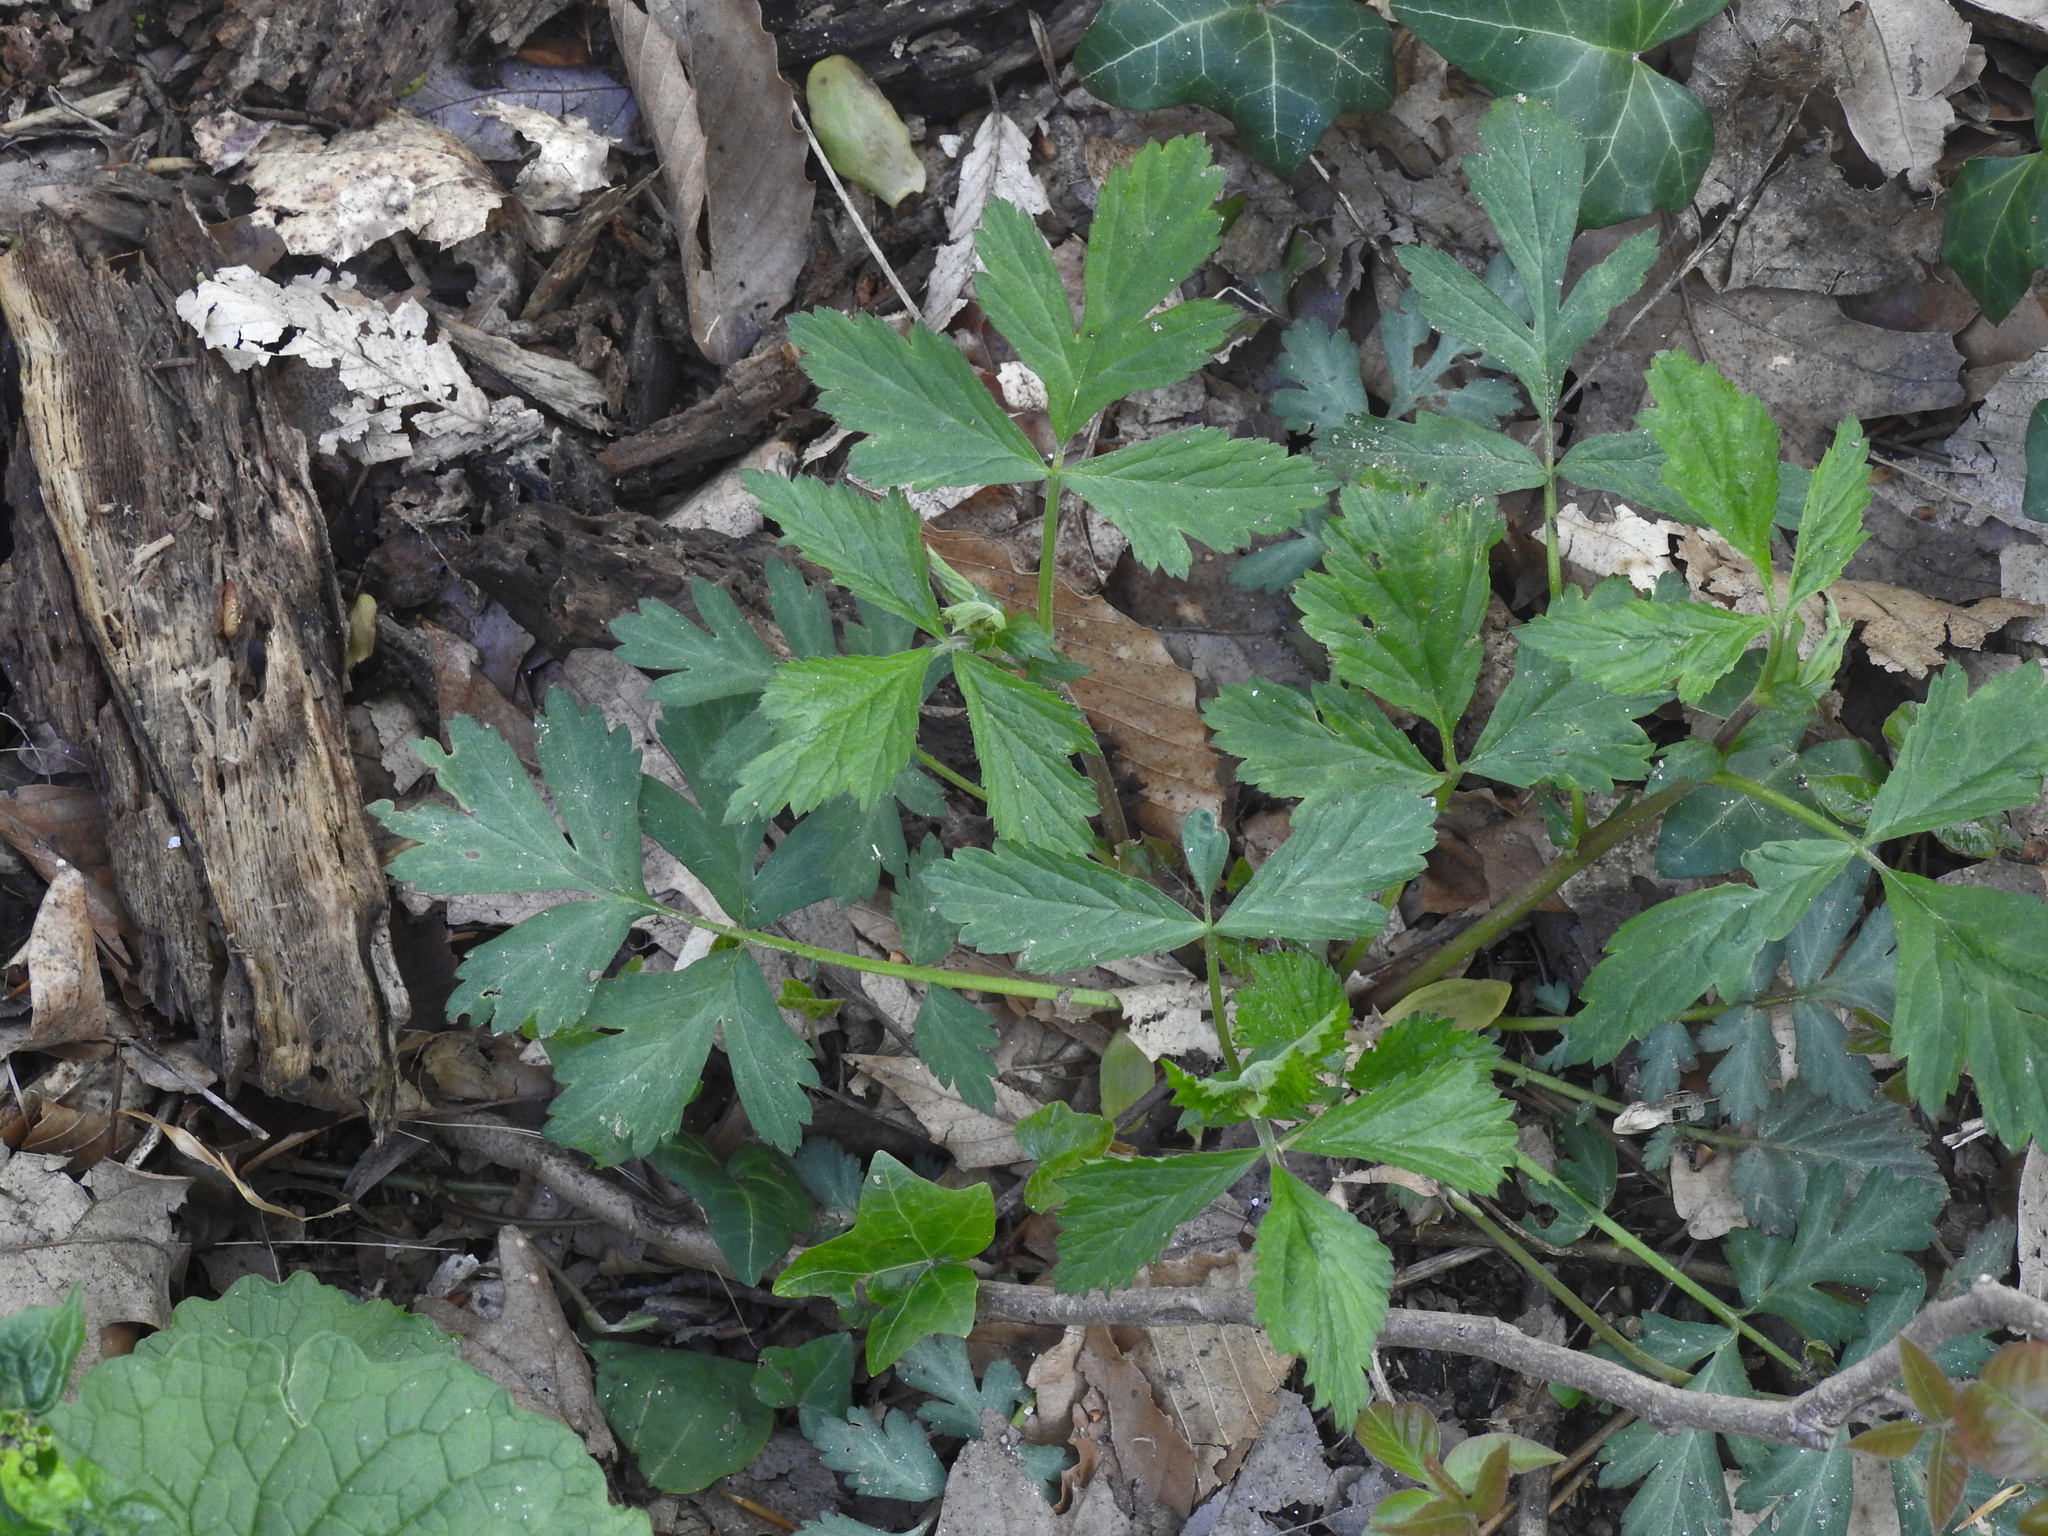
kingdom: Plantae
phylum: Tracheophyta
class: Magnoliopsida
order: Rosales
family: Rosaceae
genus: Geum
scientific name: Geum canadense
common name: White avens
